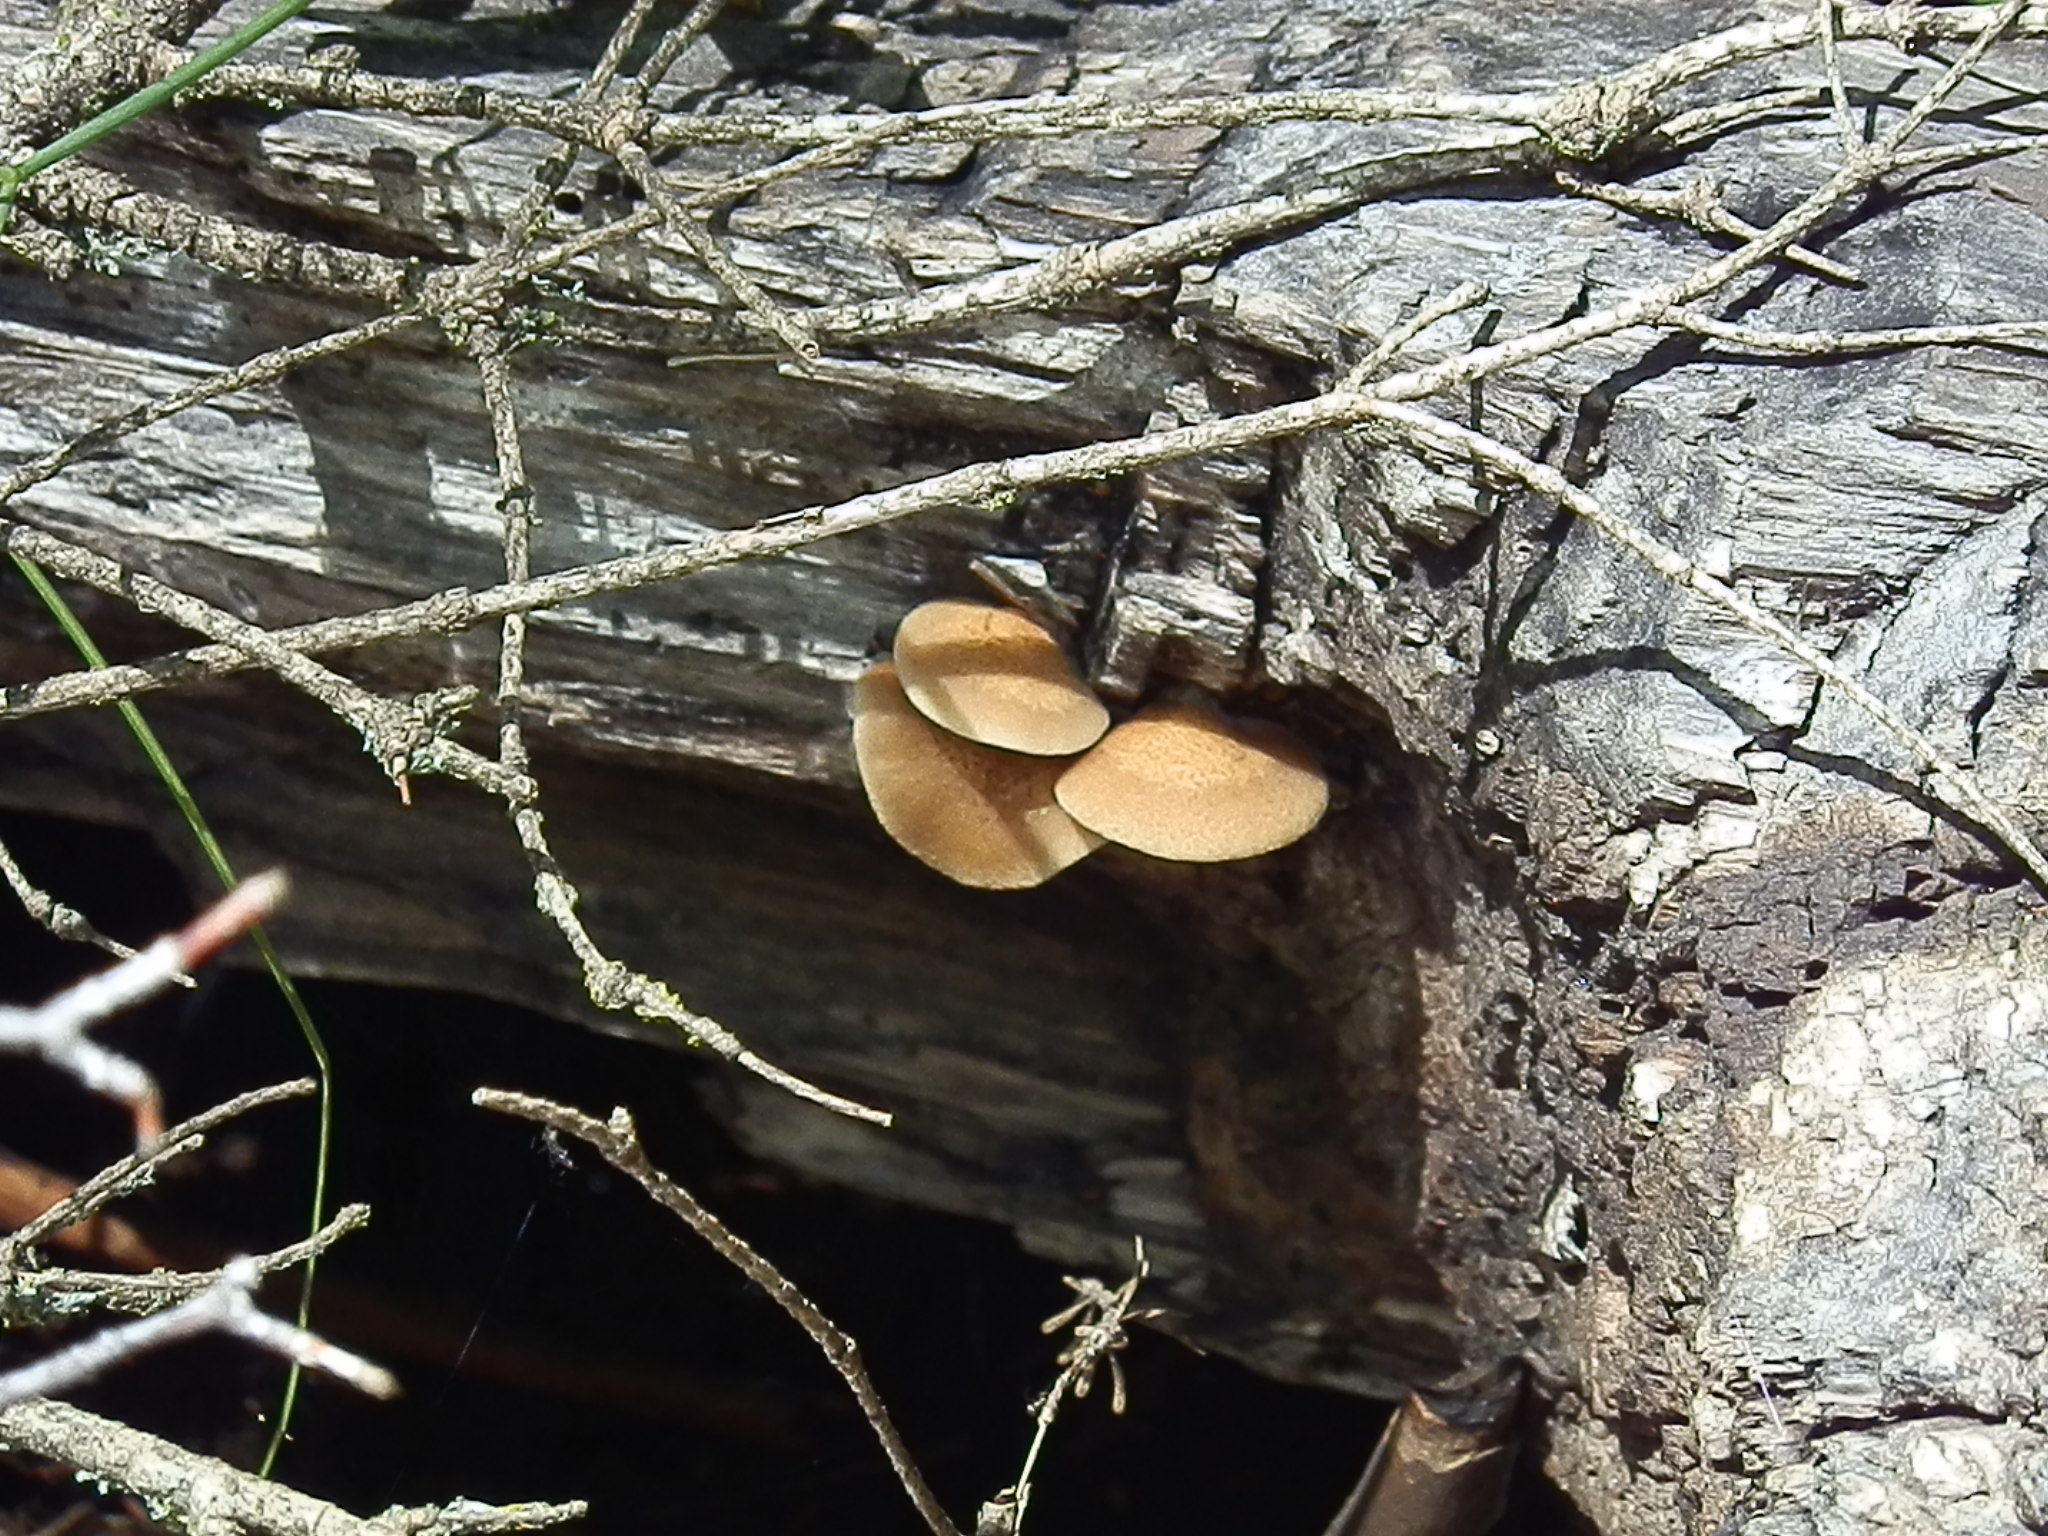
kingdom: Fungi
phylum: Basidiomycota
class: Agaricomycetes
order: Agaricales
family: Crepidotaceae
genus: Crepidotus
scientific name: Crepidotus mollis
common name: Peeling oysterling
